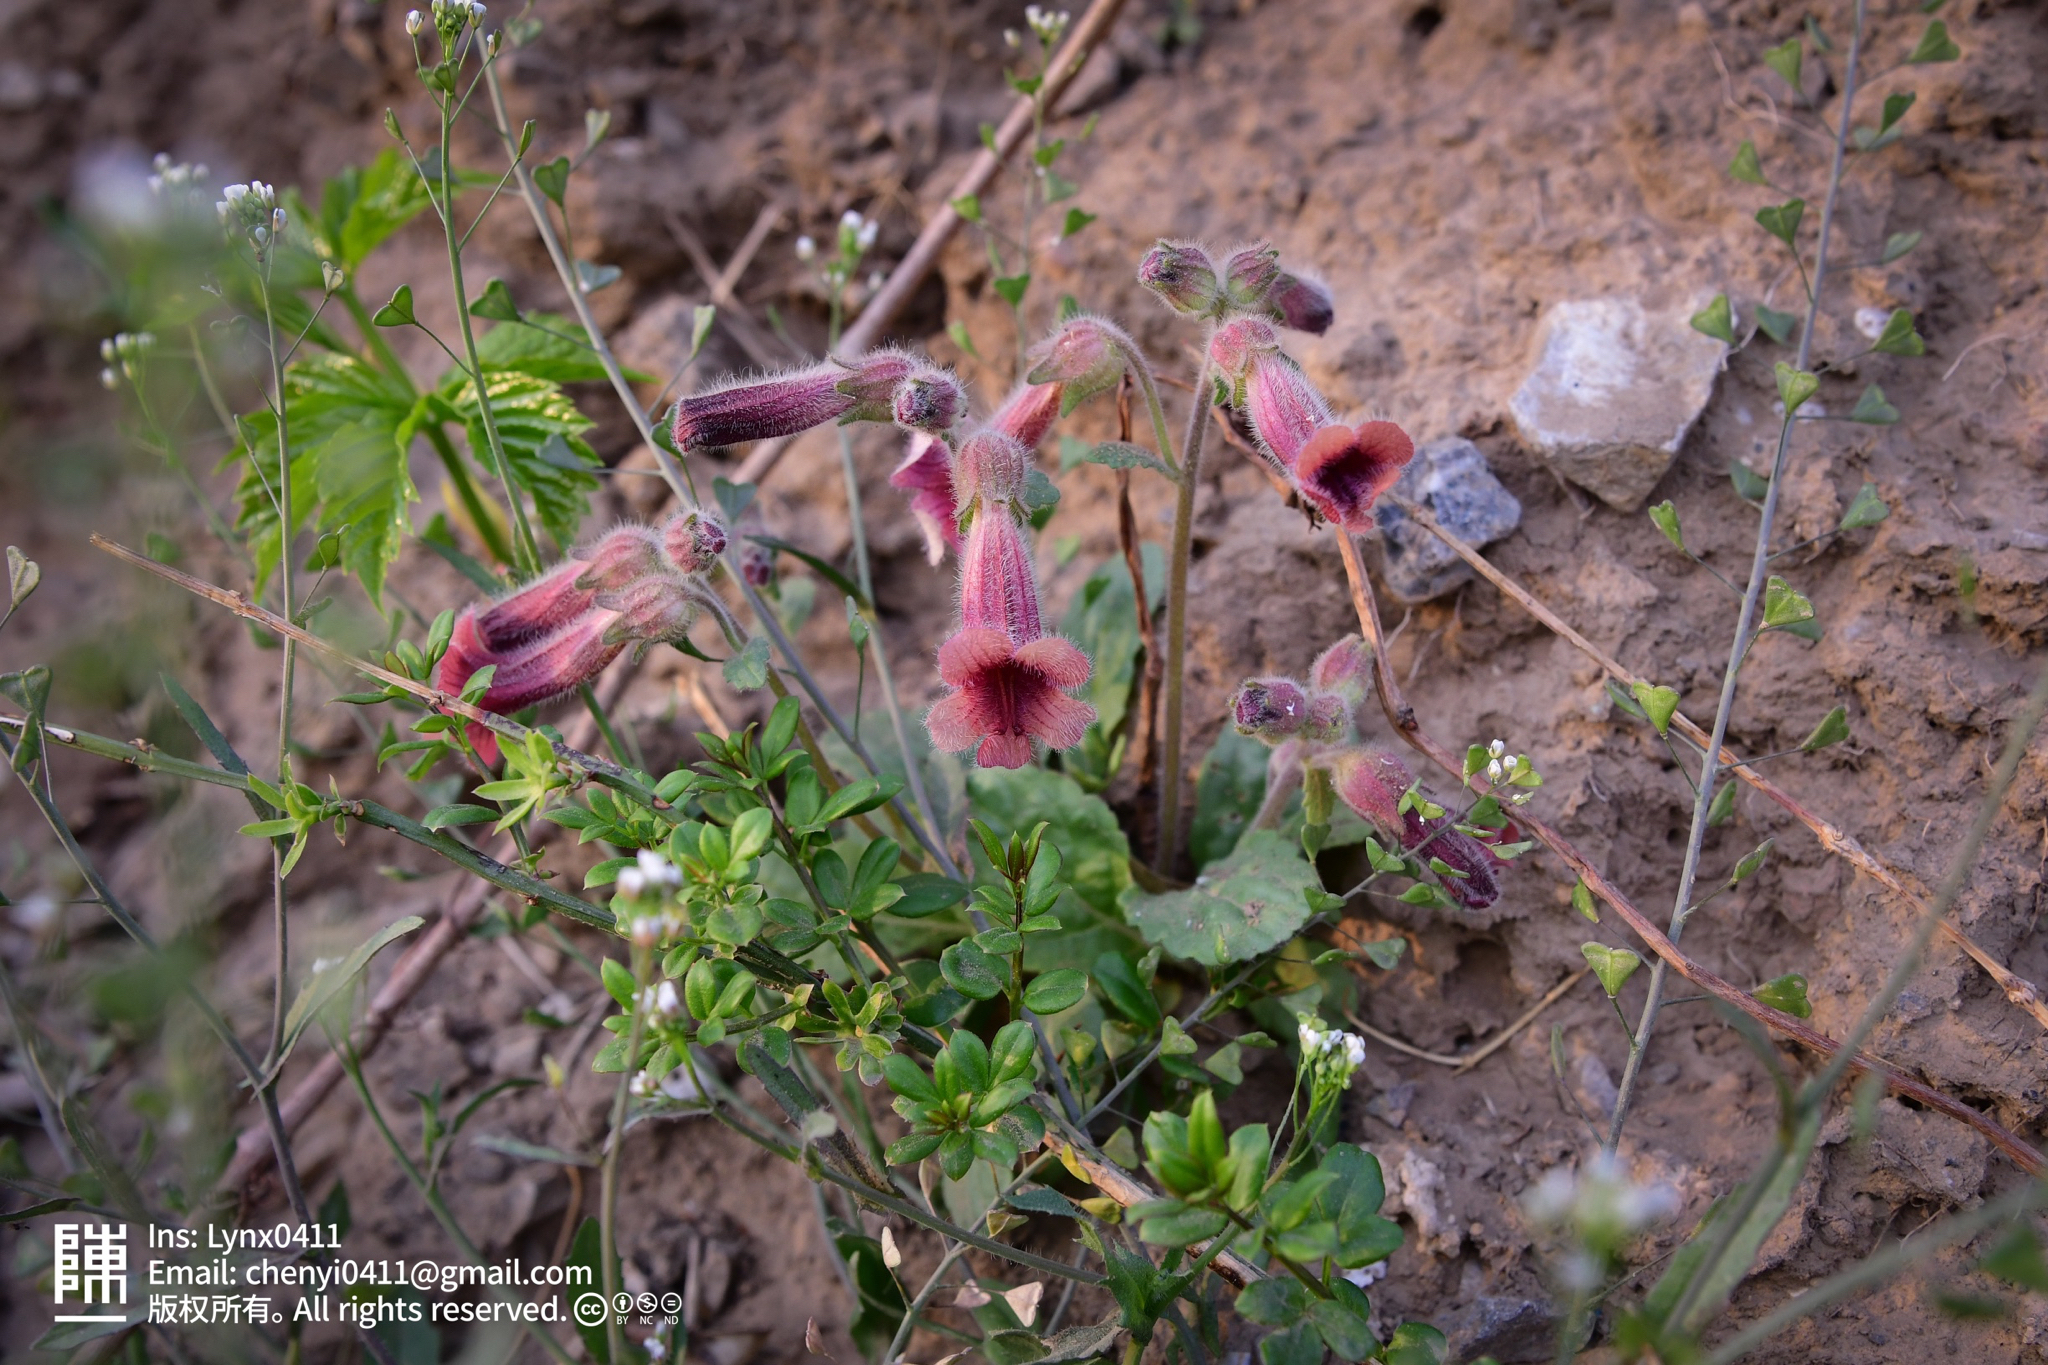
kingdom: Plantae
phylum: Tracheophyta
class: Magnoliopsida
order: Lamiales
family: Rehmanniaceae
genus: Rehmannia
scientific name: Rehmannia glutinosa
